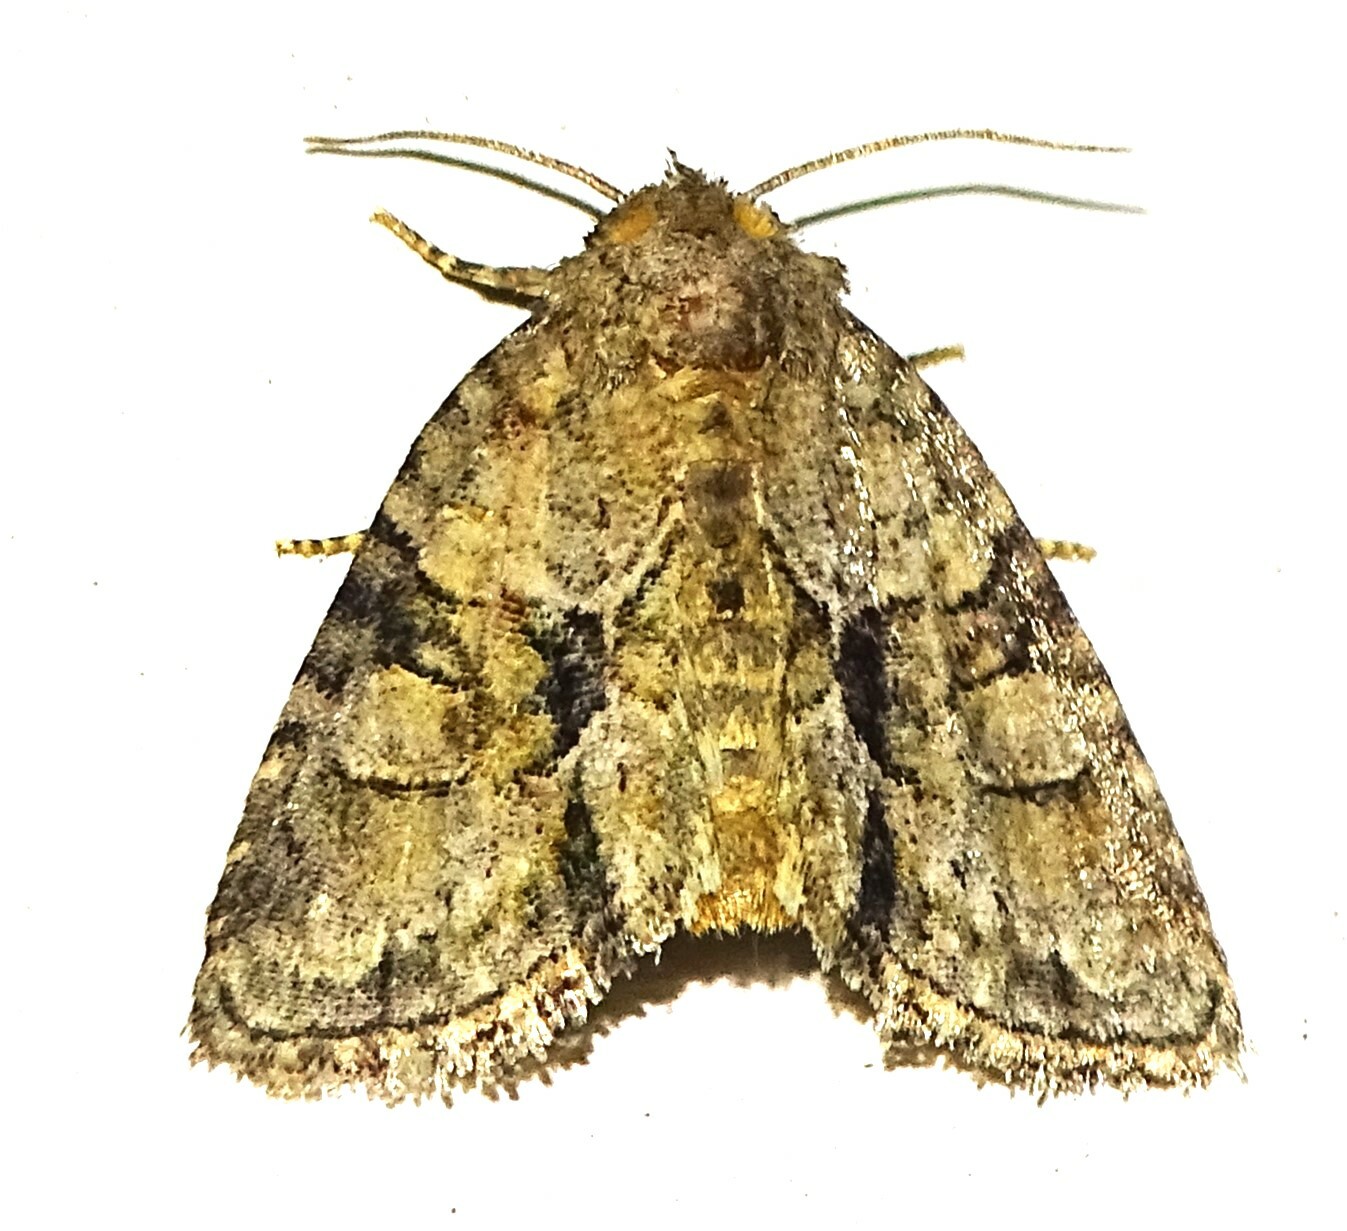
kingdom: Animalia
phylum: Arthropoda
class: Insecta
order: Lepidoptera
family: Noctuidae
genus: Neoligia
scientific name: Neoligia exhausta
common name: Exhausted brocade
